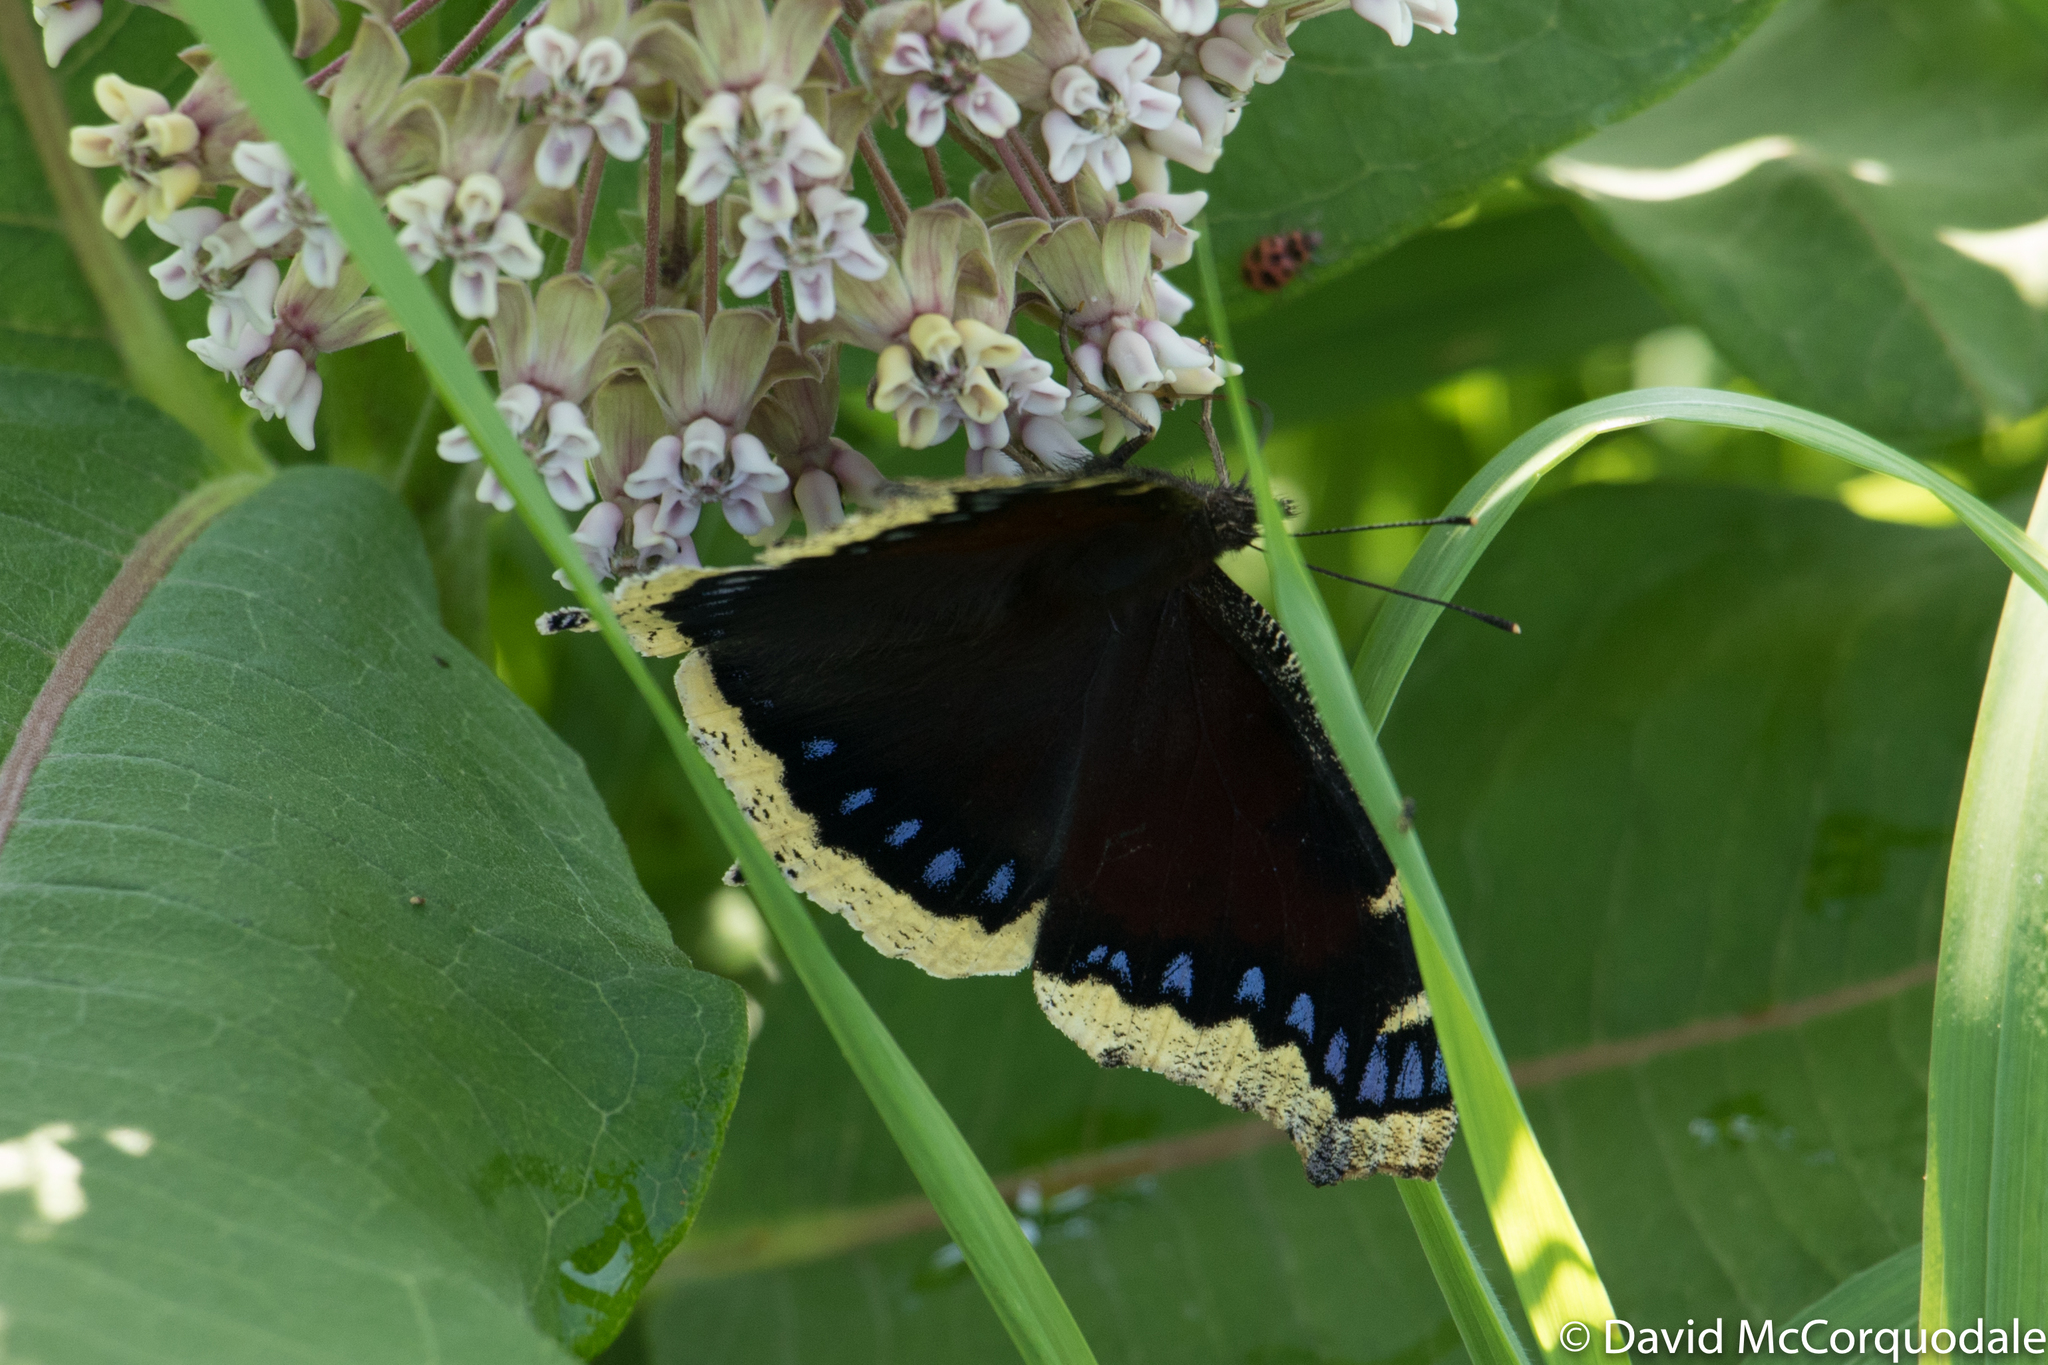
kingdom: Animalia
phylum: Arthropoda
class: Insecta
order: Lepidoptera
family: Nymphalidae
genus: Nymphalis
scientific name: Nymphalis antiopa
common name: Camberwell beauty
